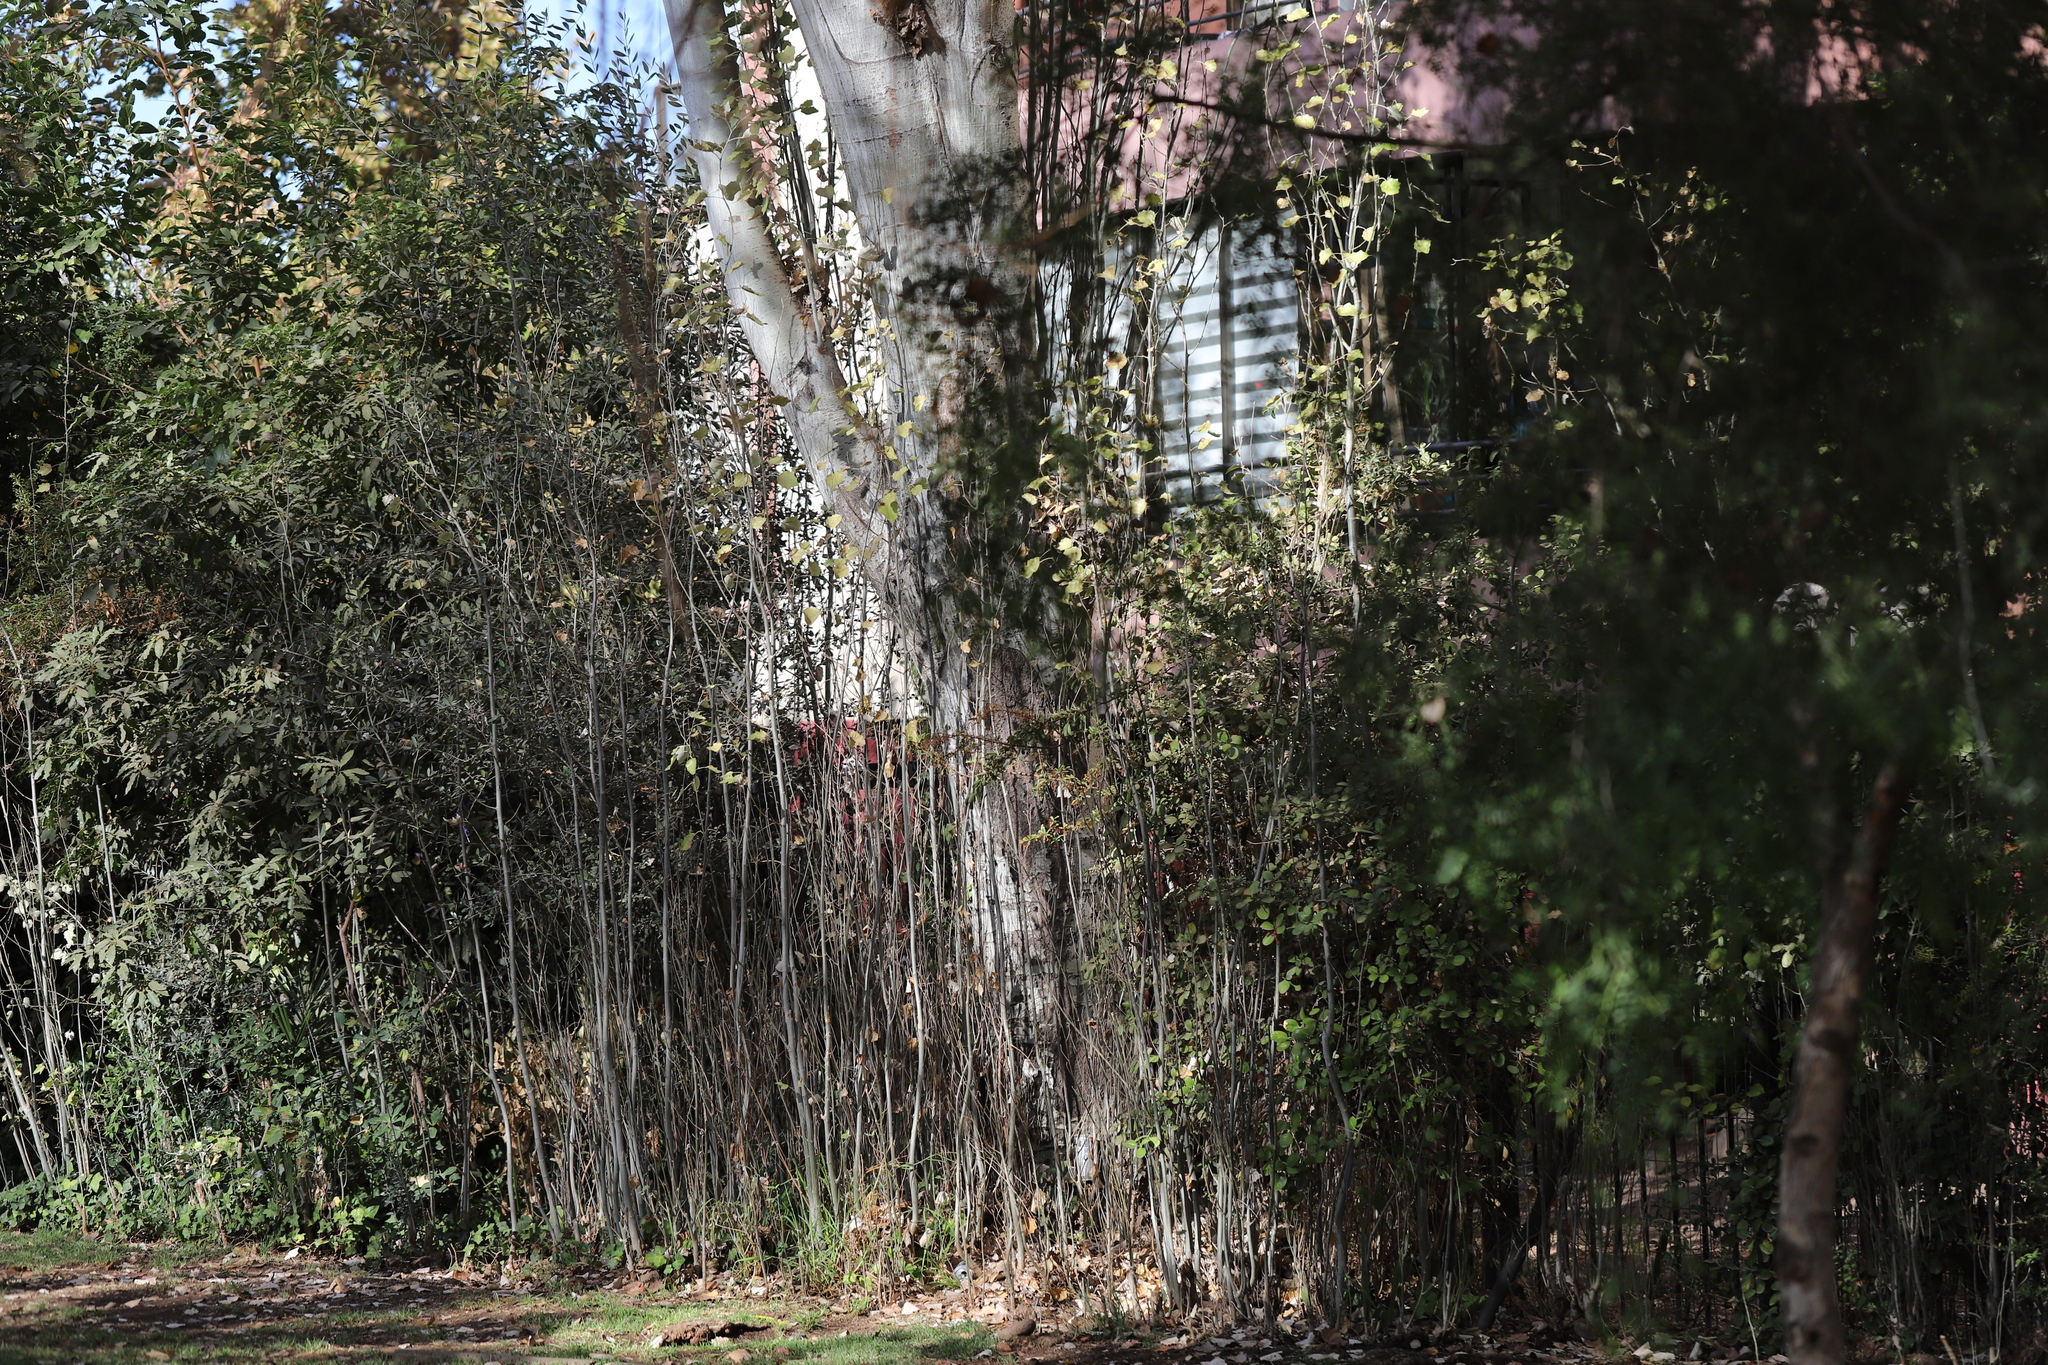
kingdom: Plantae
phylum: Tracheophyta
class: Magnoliopsida
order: Malpighiales
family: Salicaceae
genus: Populus
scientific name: Populus alba
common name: White poplar
